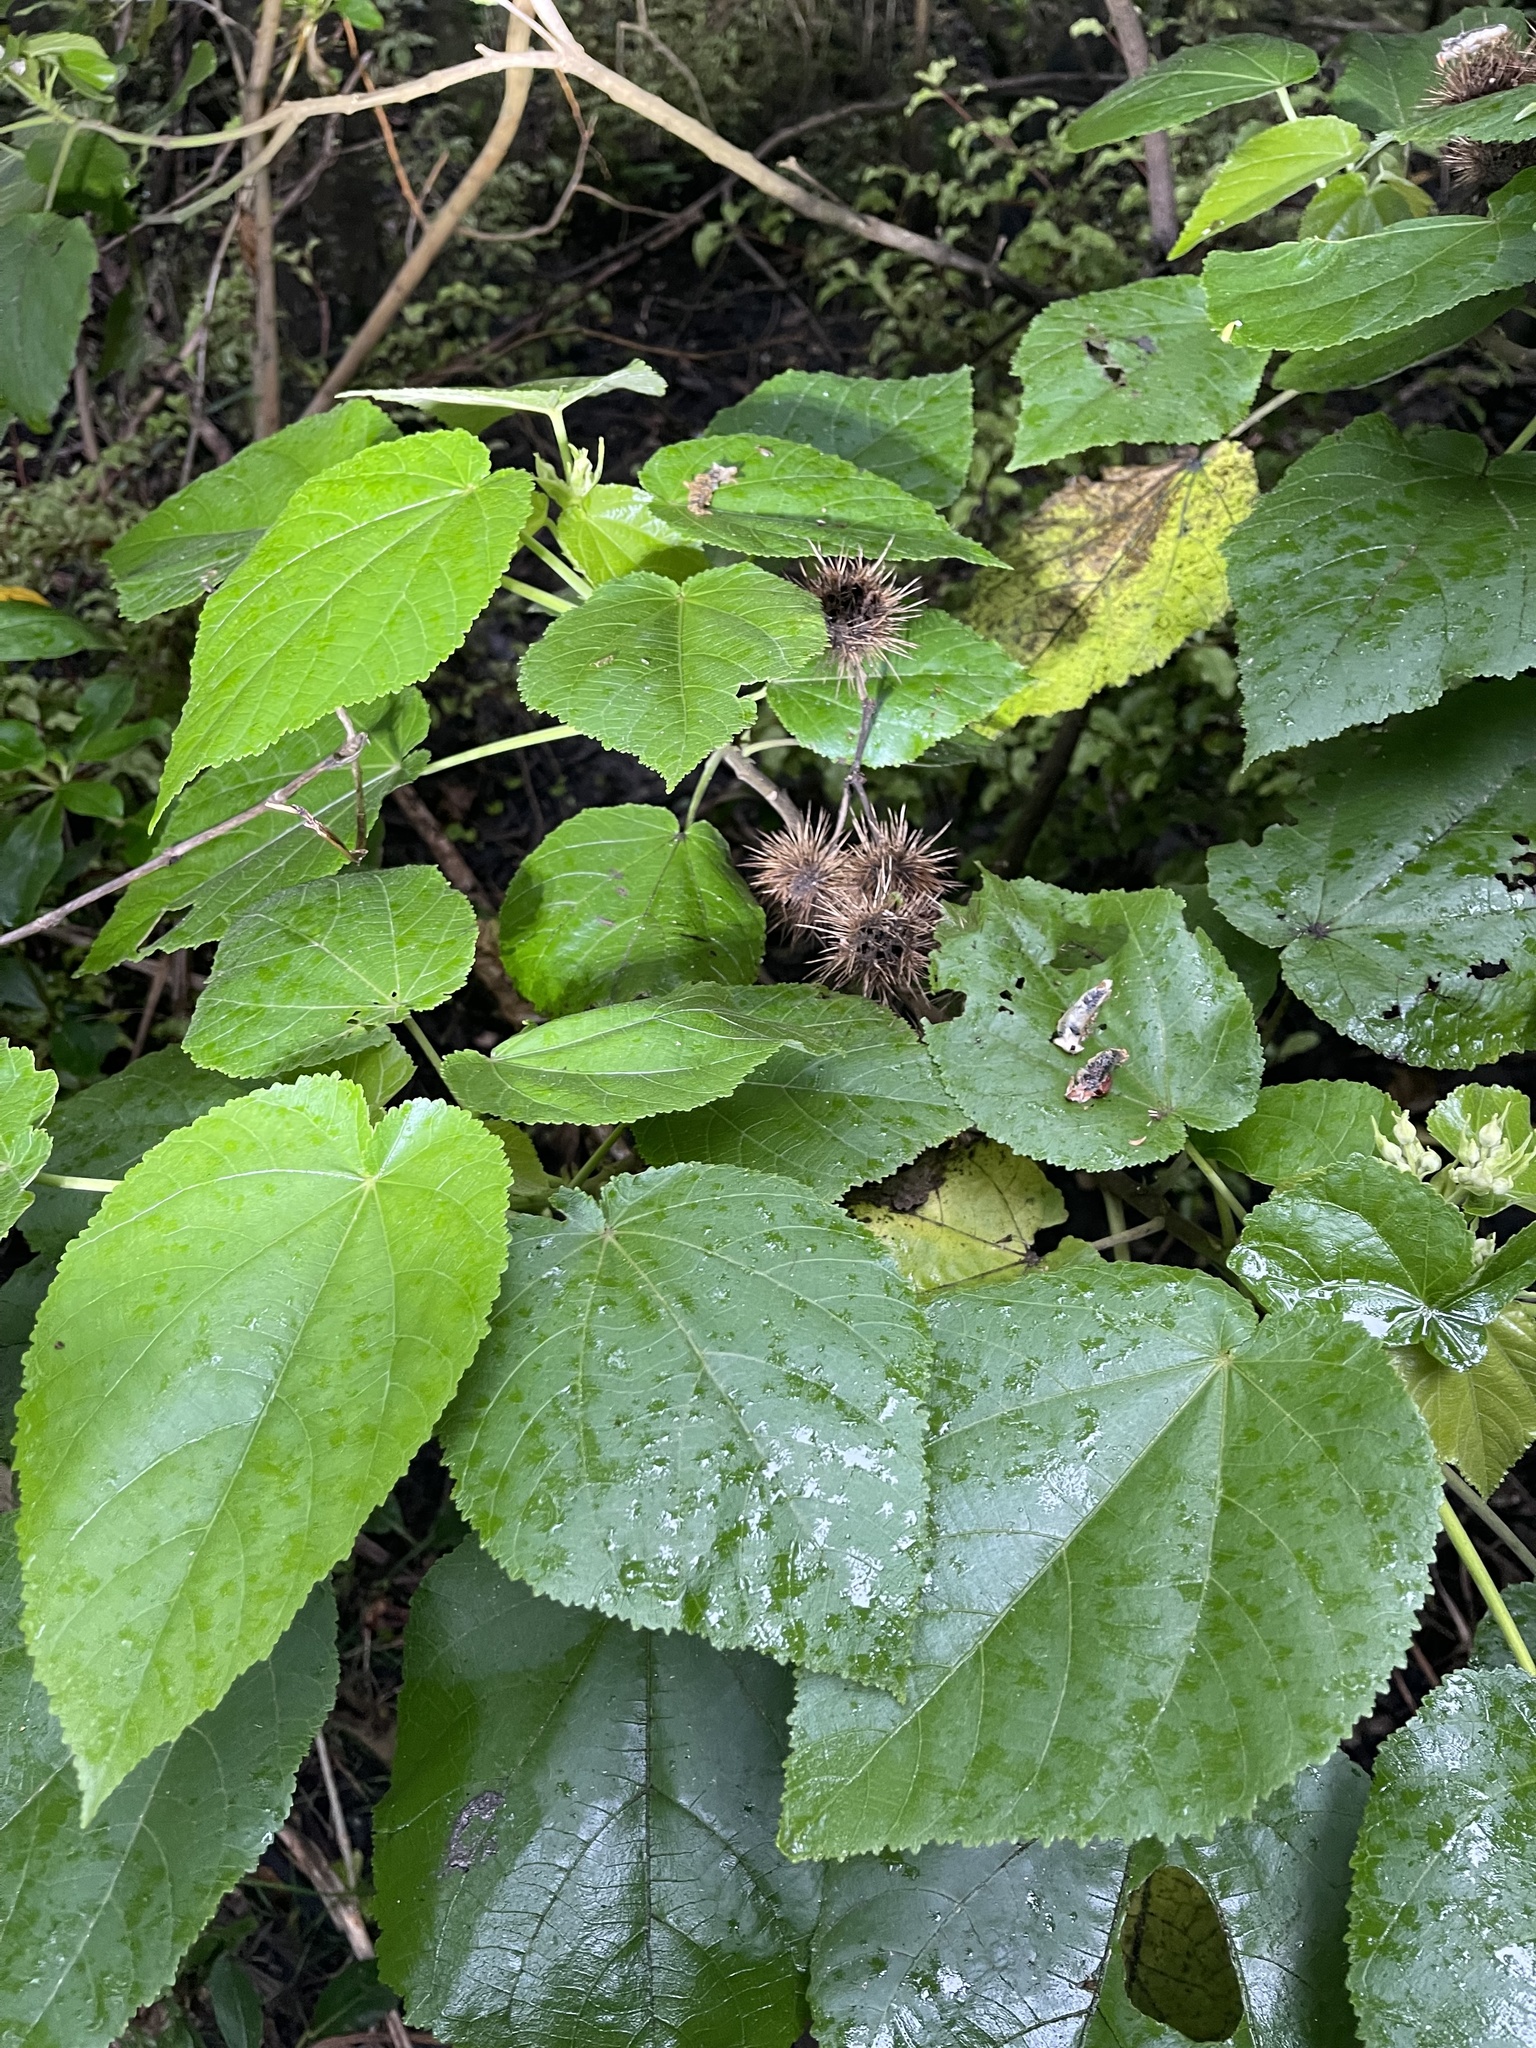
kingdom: Plantae
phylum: Tracheophyta
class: Magnoliopsida
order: Malvales
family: Malvaceae
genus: Entelea
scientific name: Entelea arborescens
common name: New zealand-mulberry
